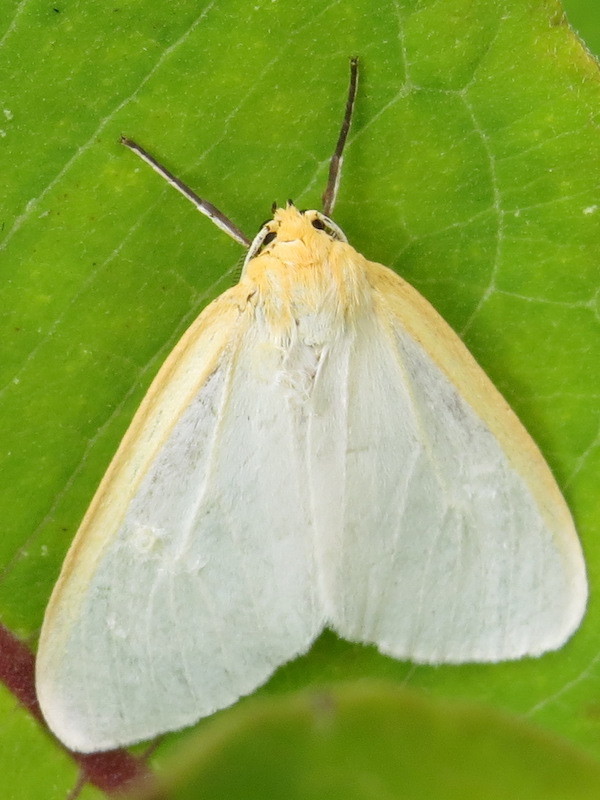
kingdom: Animalia
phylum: Arthropoda
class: Insecta
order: Lepidoptera
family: Erebidae
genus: Cycnia
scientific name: Cycnia tenera
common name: Delicate cycnia moth
